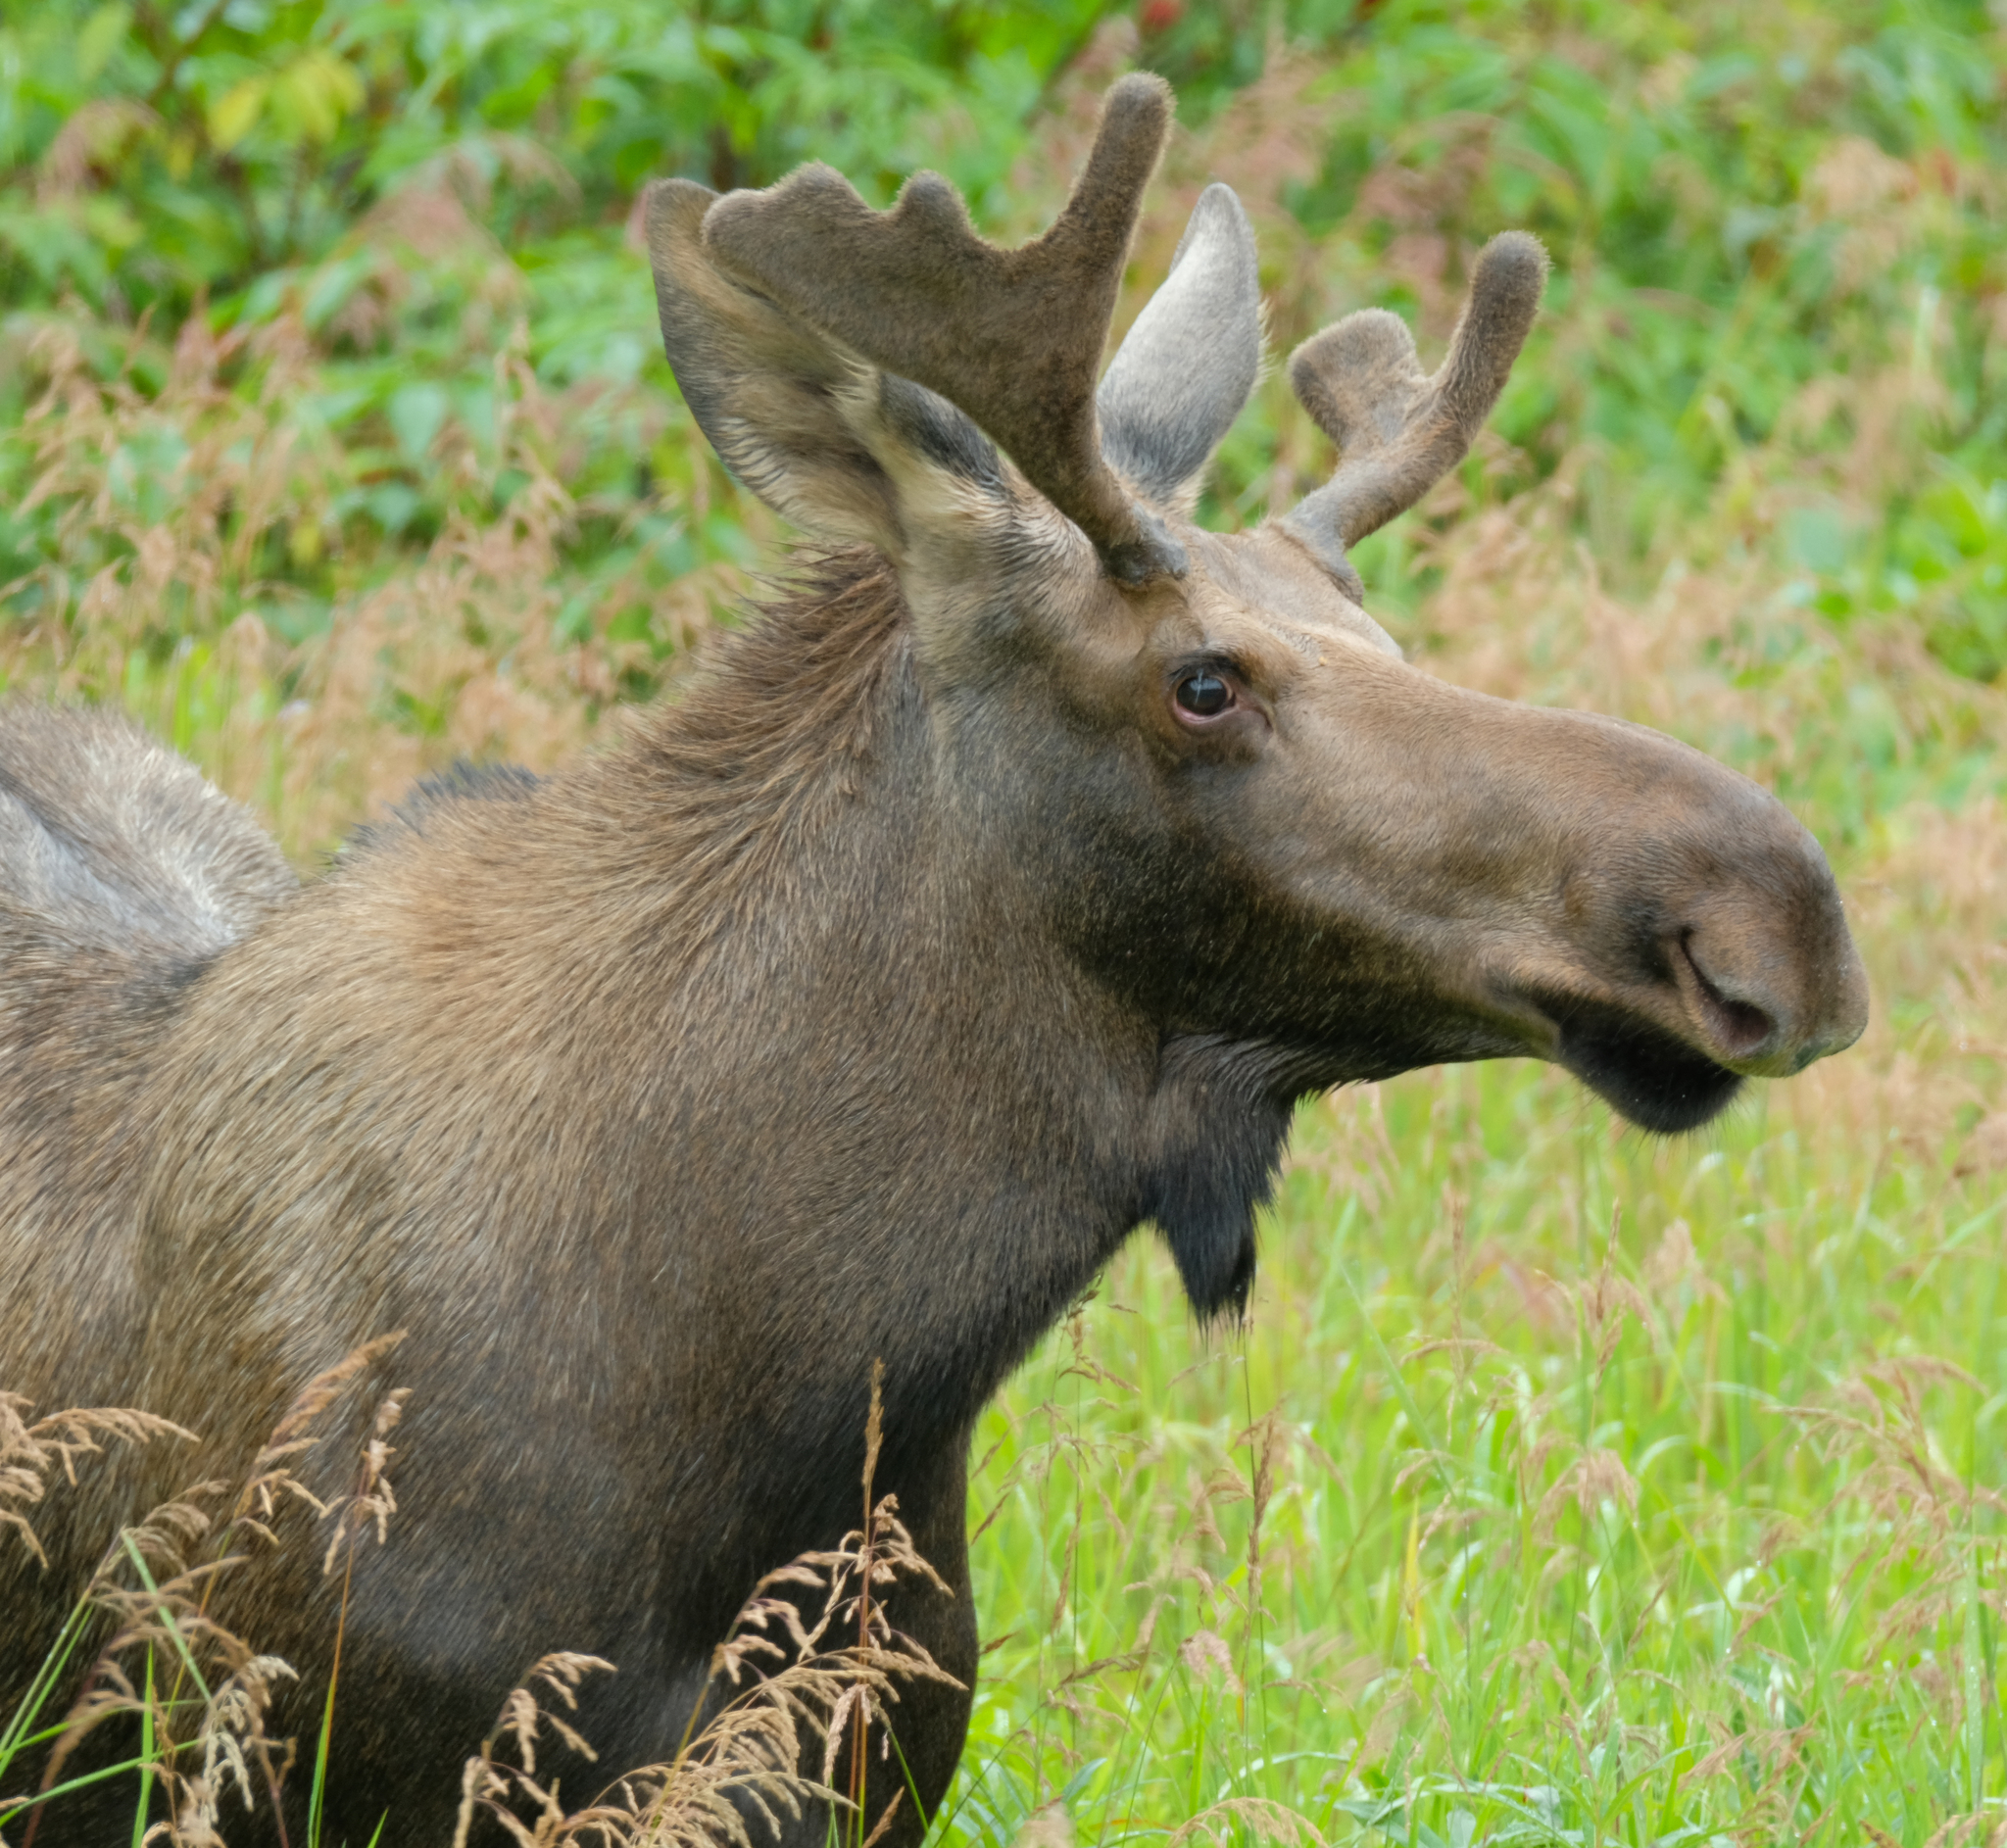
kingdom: Animalia
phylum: Chordata
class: Mammalia
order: Artiodactyla
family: Cervidae
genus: Alces
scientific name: Alces alces
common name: Moose
